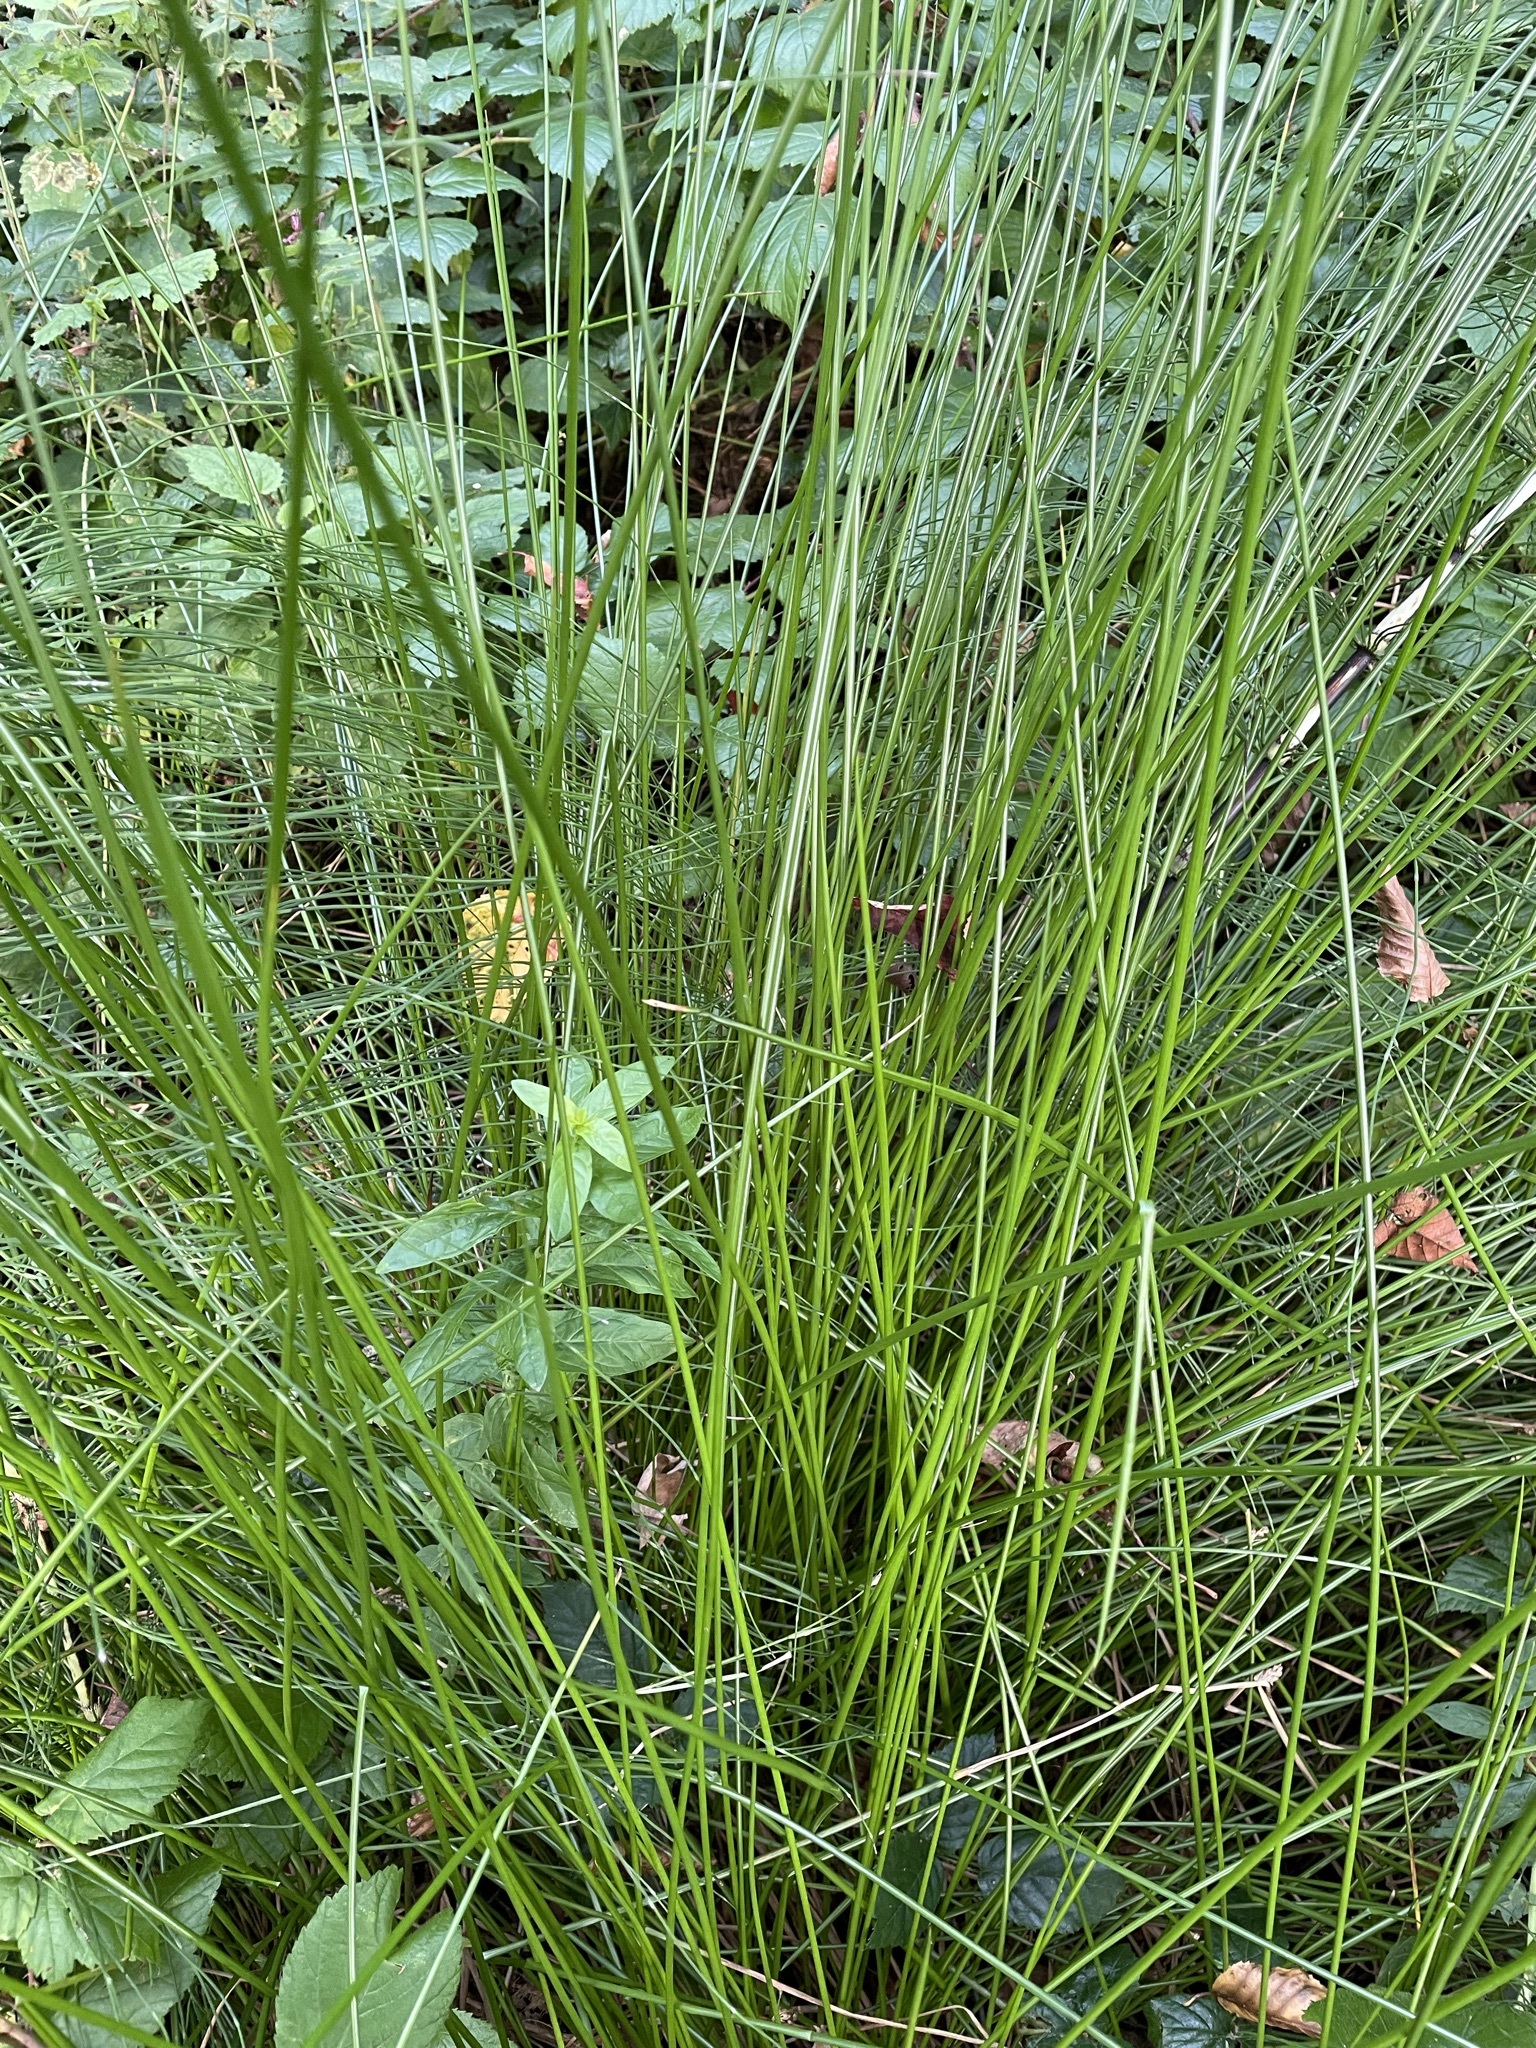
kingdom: Plantae
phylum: Tracheophyta
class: Liliopsida
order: Poales
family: Juncaceae
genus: Juncus
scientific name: Juncus effusus
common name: Soft rush
